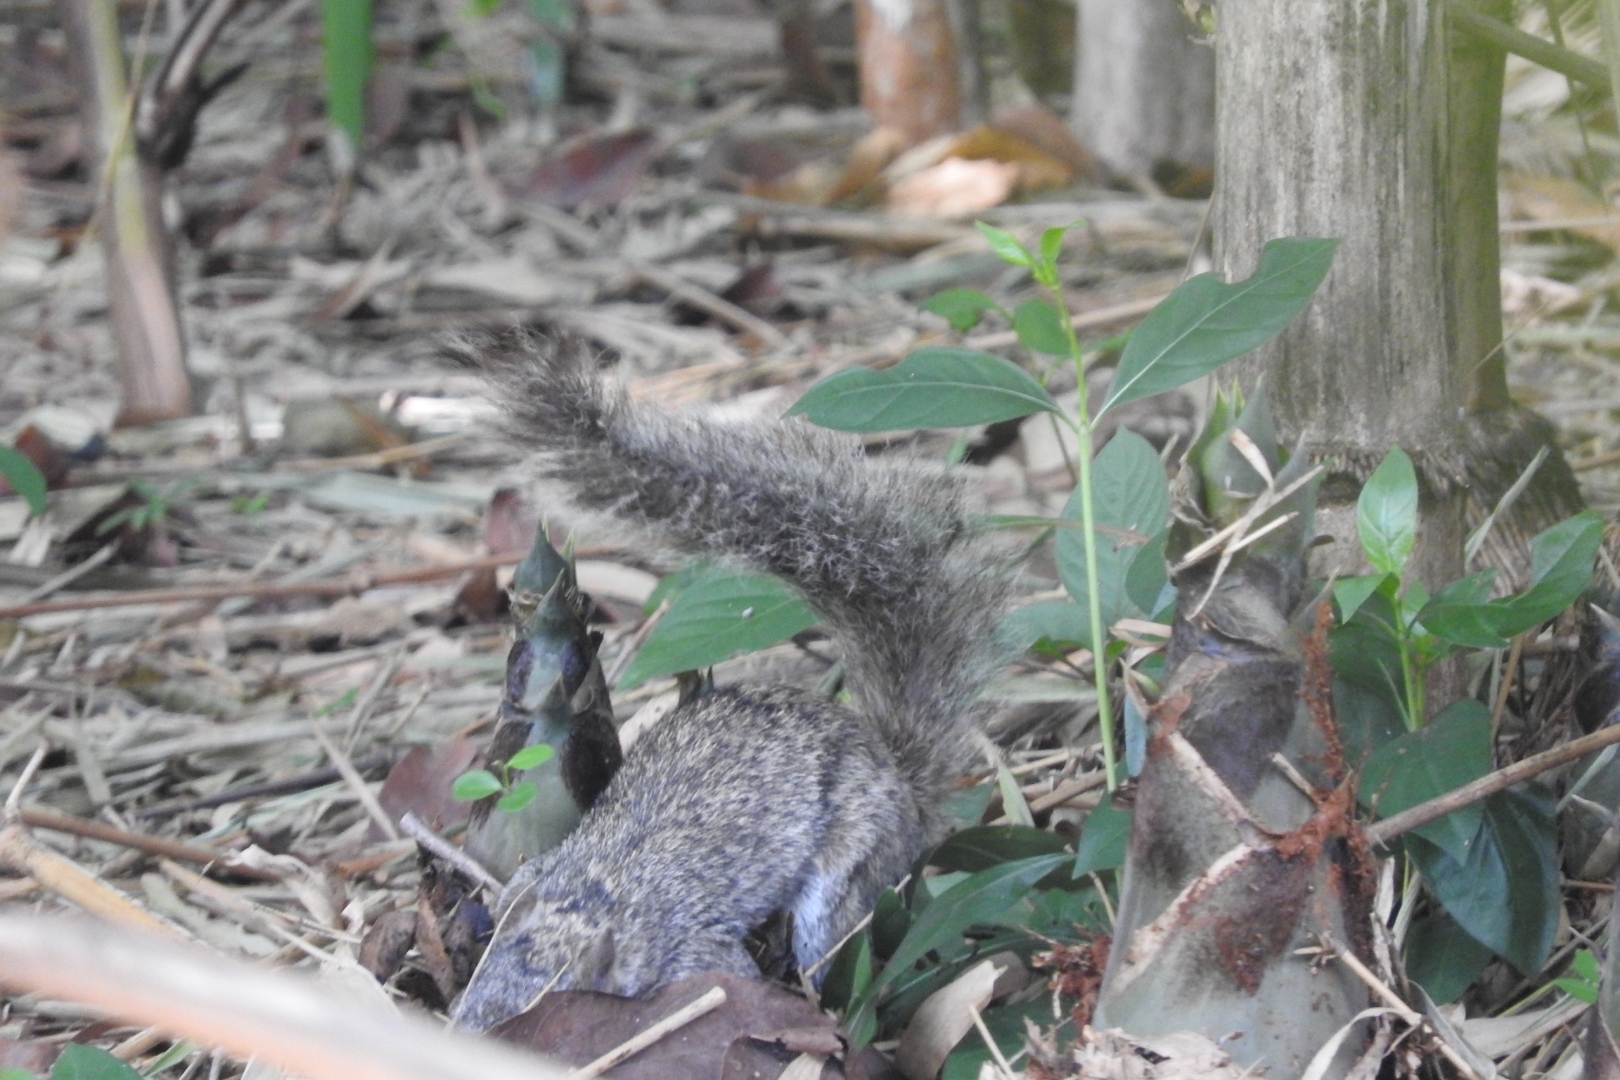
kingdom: Animalia
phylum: Chordata
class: Mammalia
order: Rodentia
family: Sciuridae
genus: Sciurus
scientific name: Sciurus yucatanensis
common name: Yucatan squirrel
